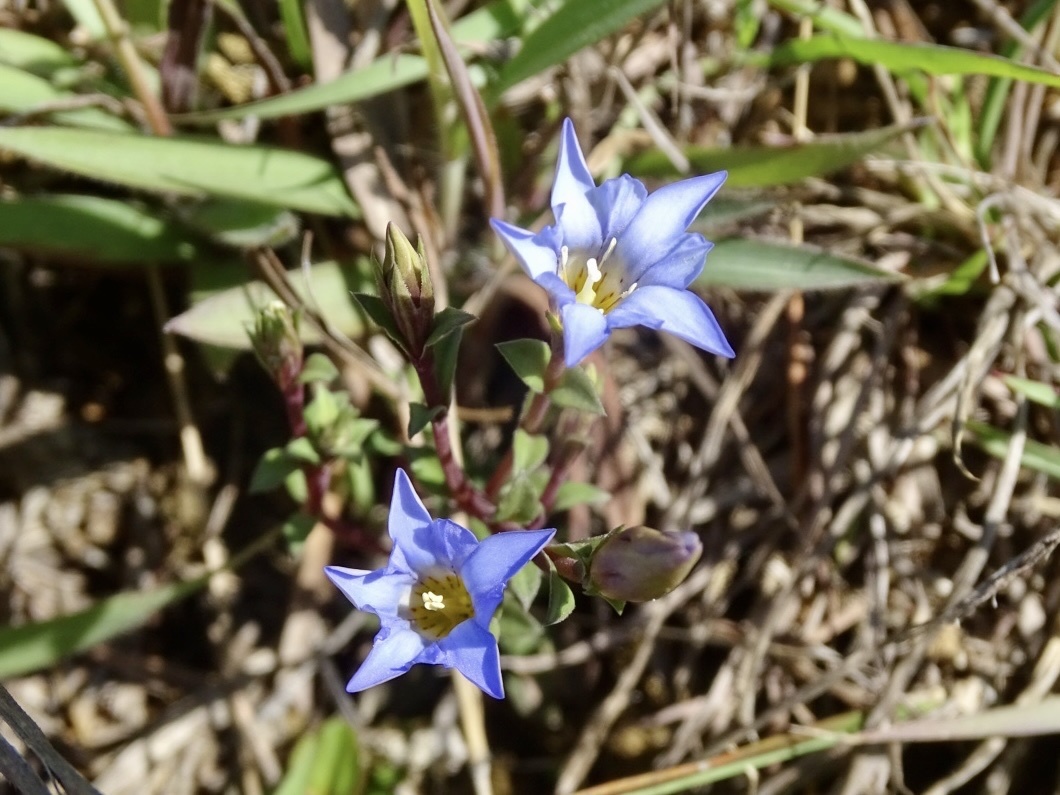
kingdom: Plantae
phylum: Tracheophyta
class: Magnoliopsida
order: Gentianales
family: Gentianaceae
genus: Gentiana
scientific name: Gentiana loureiroi
